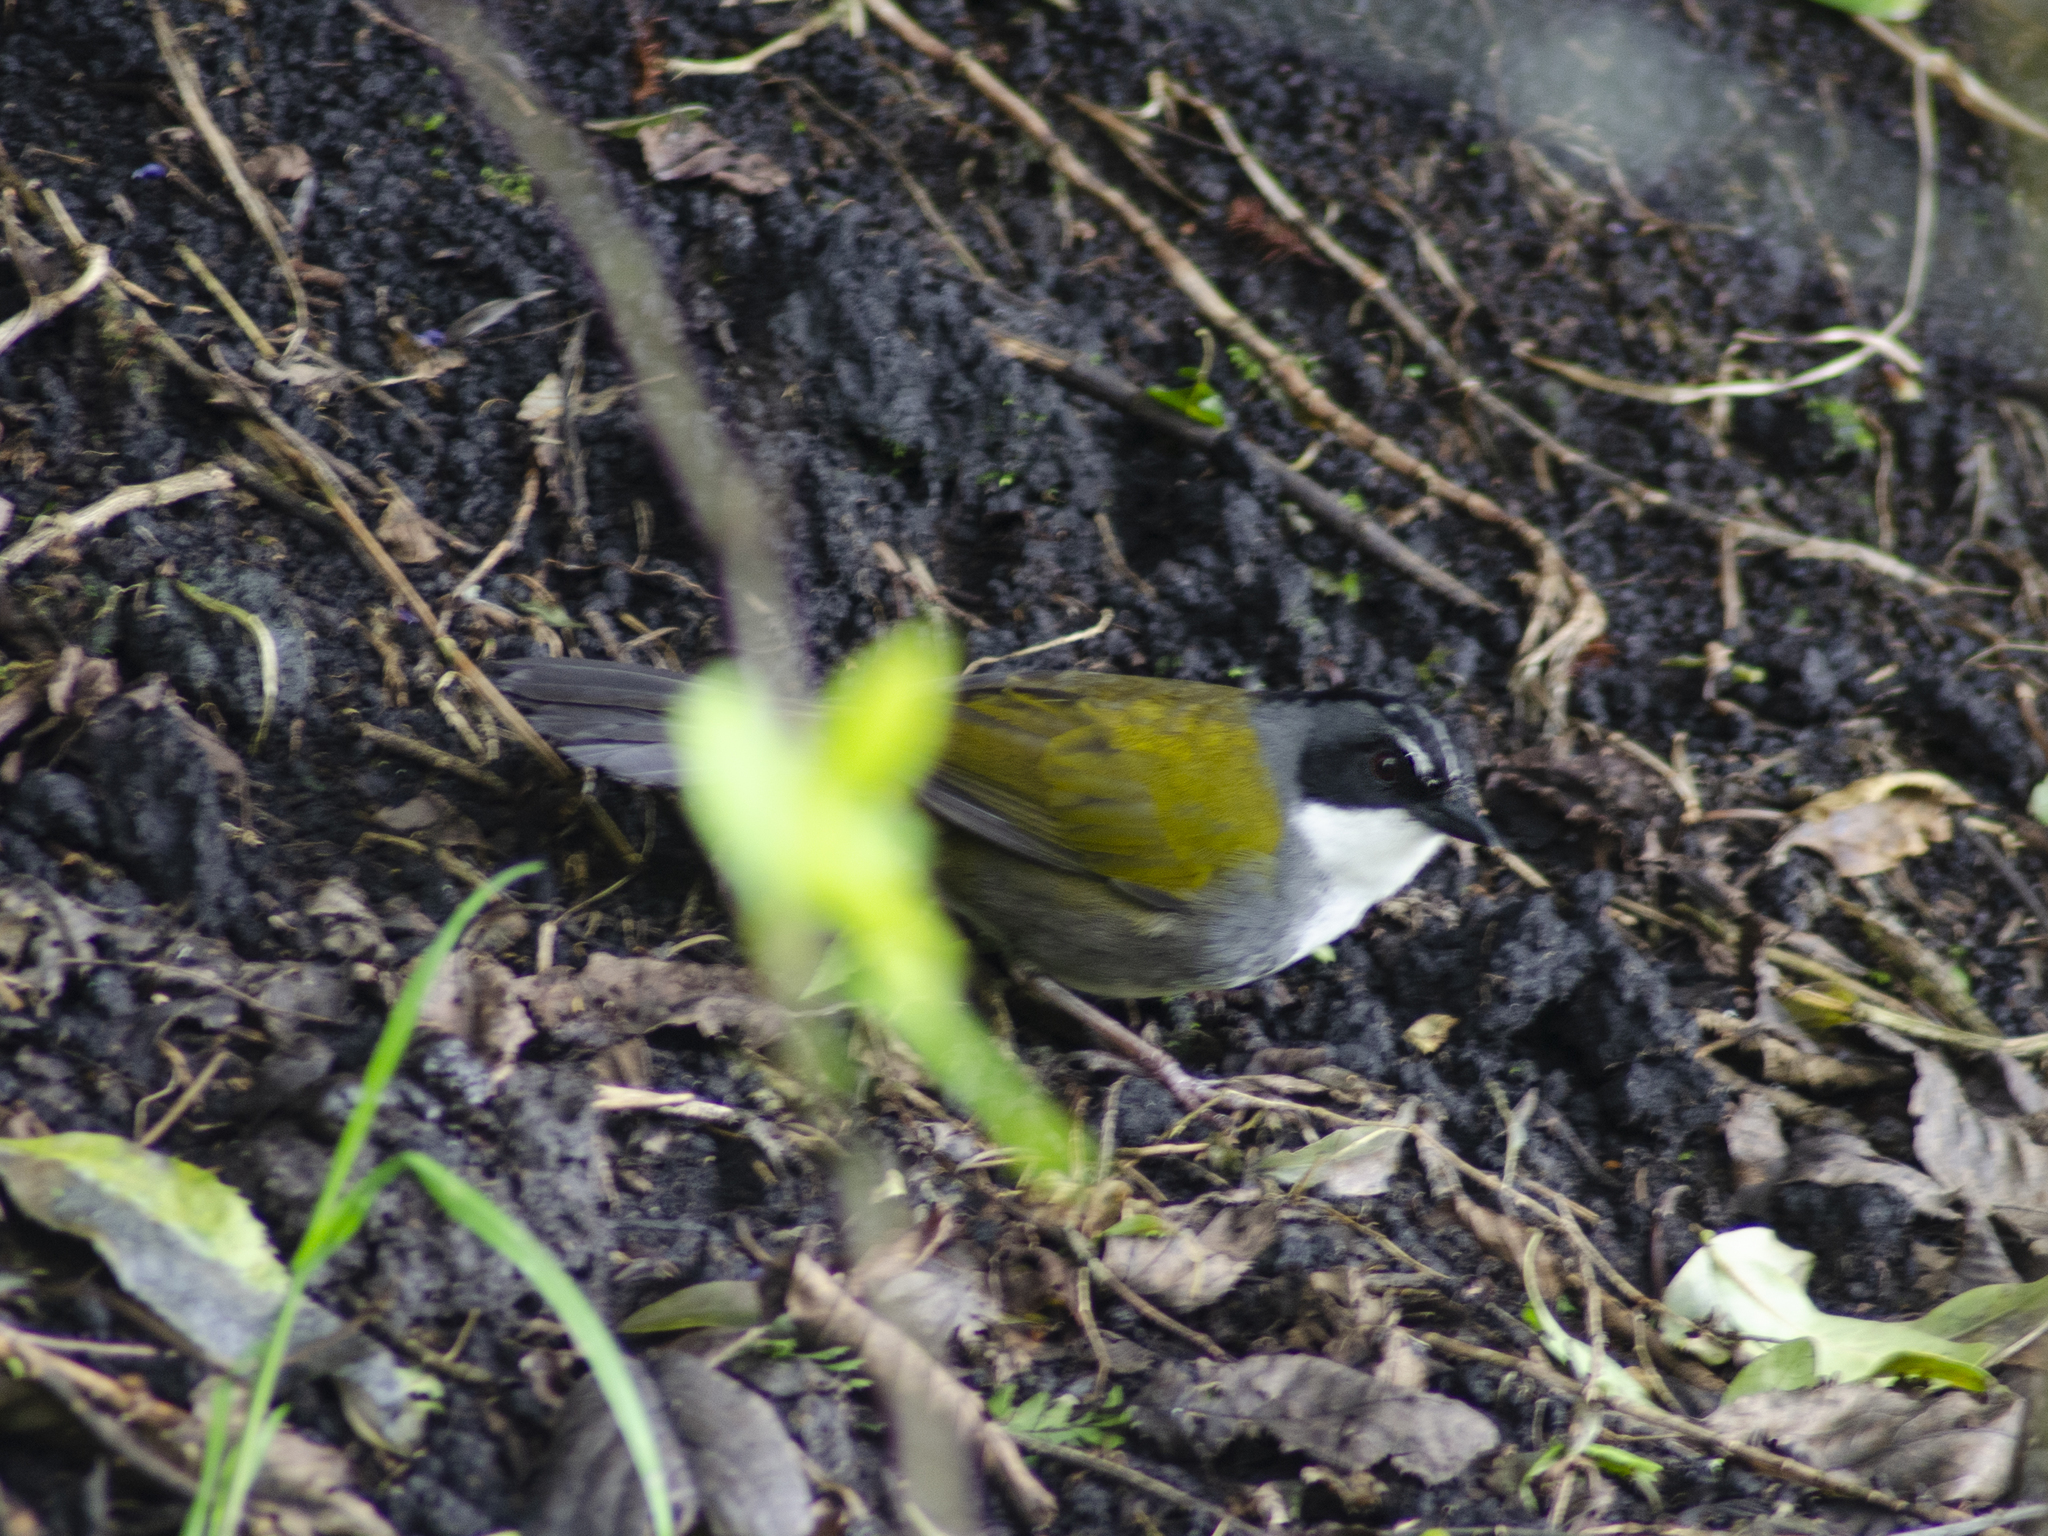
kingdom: Animalia
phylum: Chordata
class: Aves
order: Passeriformes
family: Passerellidae
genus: Arremon
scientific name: Arremon assimilis
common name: Grey-browed brushfinch
